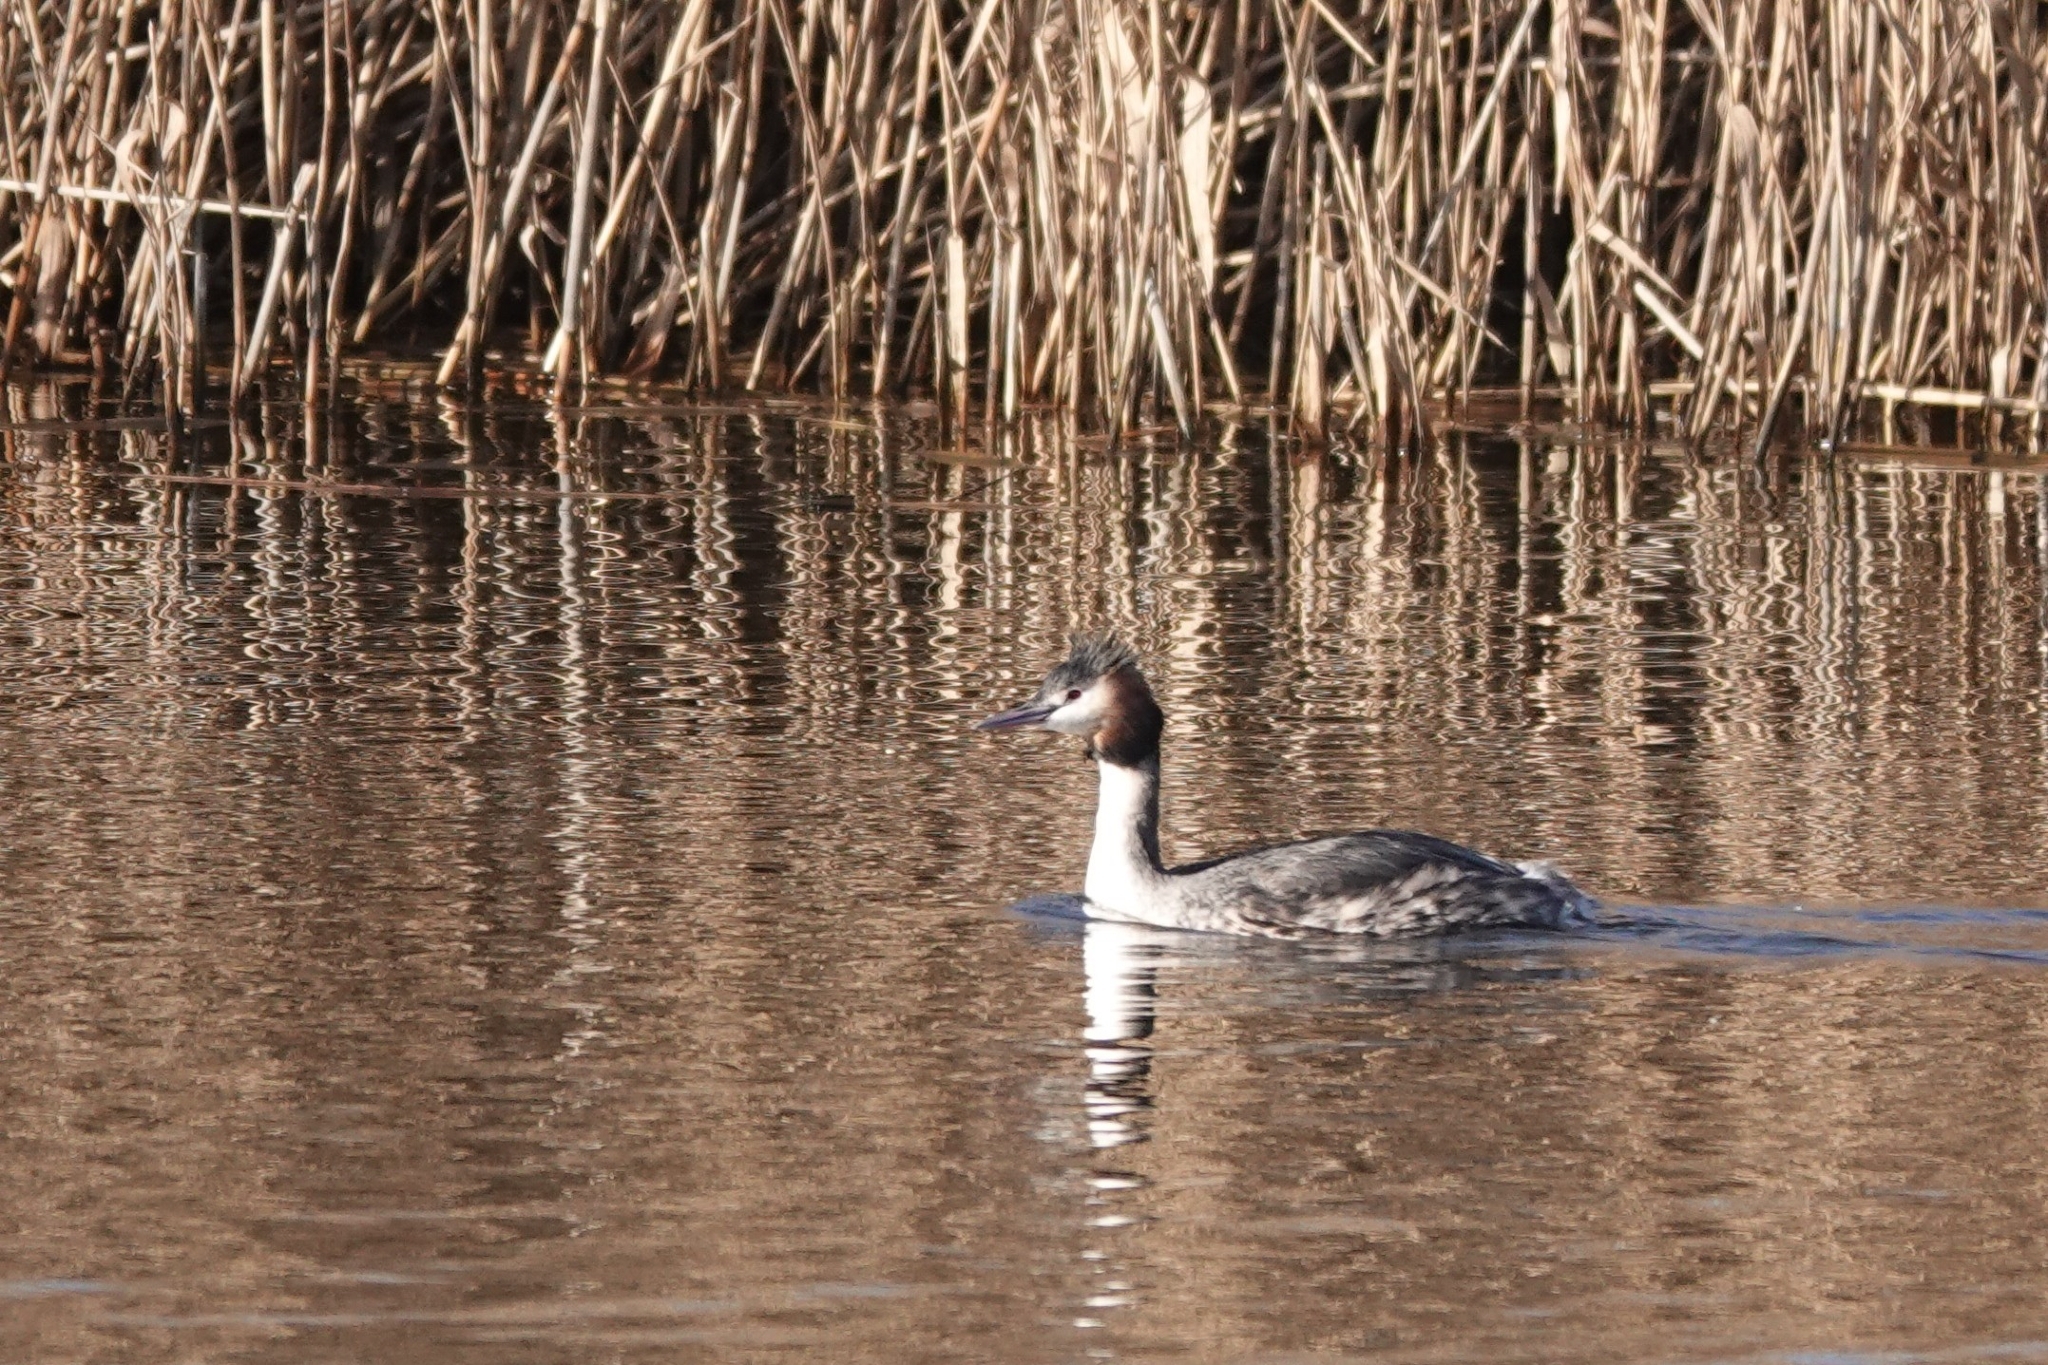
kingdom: Animalia
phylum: Chordata
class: Aves
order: Podicipediformes
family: Podicipedidae
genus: Podiceps
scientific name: Podiceps cristatus
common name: Great crested grebe
